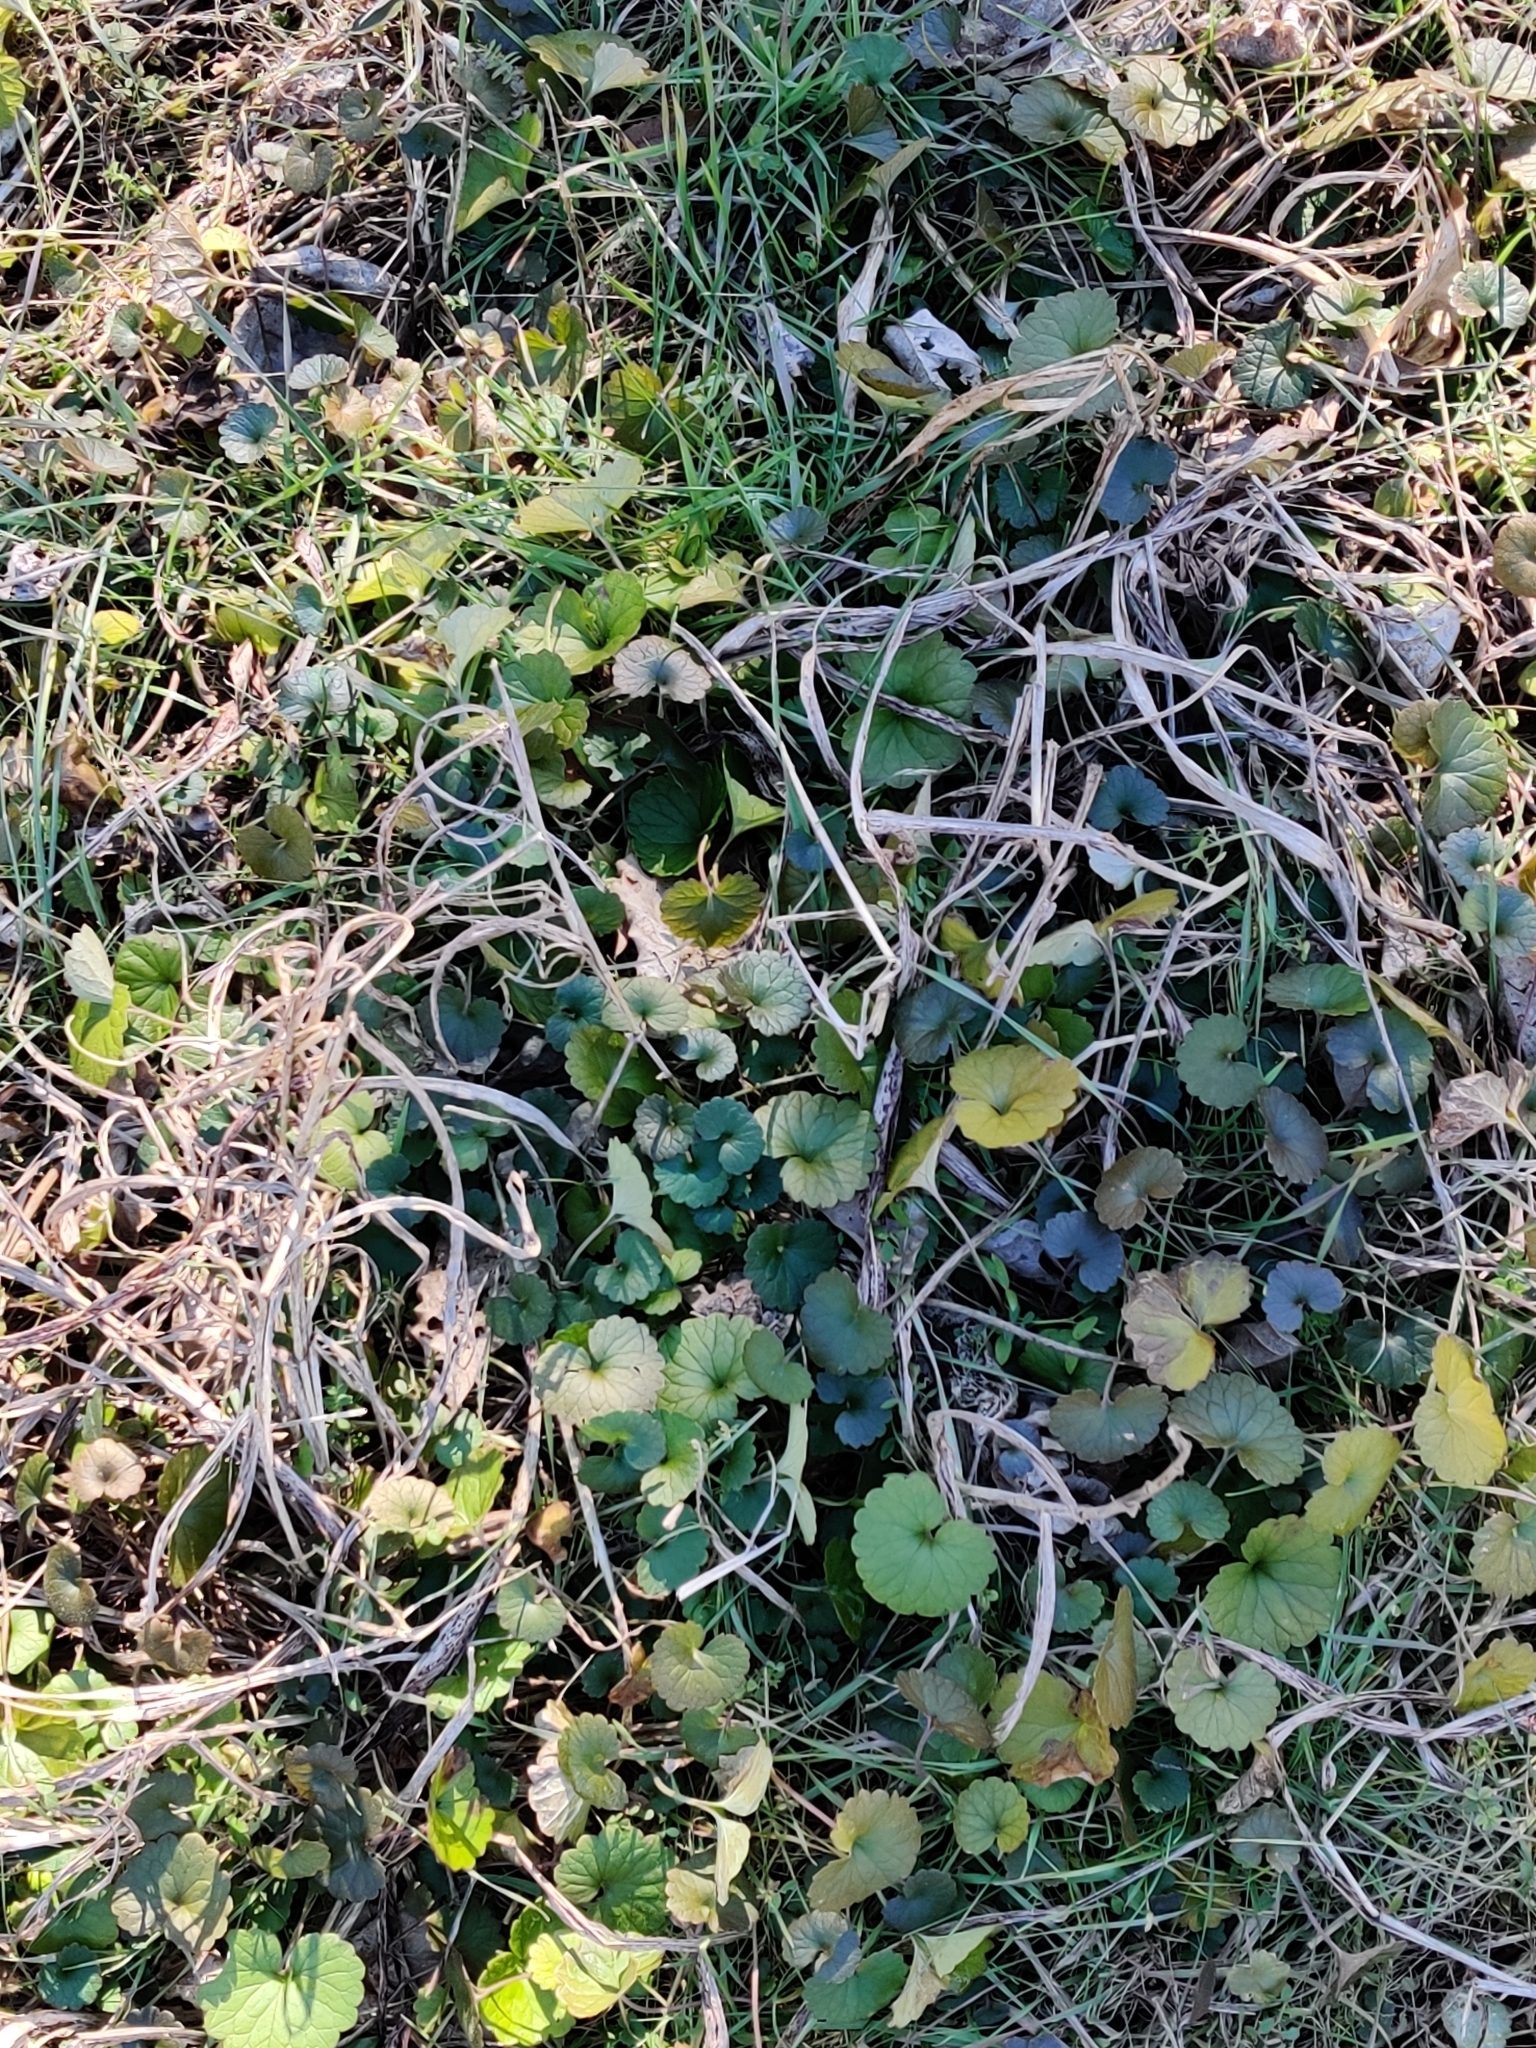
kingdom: Plantae
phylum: Tracheophyta
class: Magnoliopsida
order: Lamiales
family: Lamiaceae
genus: Glechoma
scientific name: Glechoma hederacea
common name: Ground ivy
